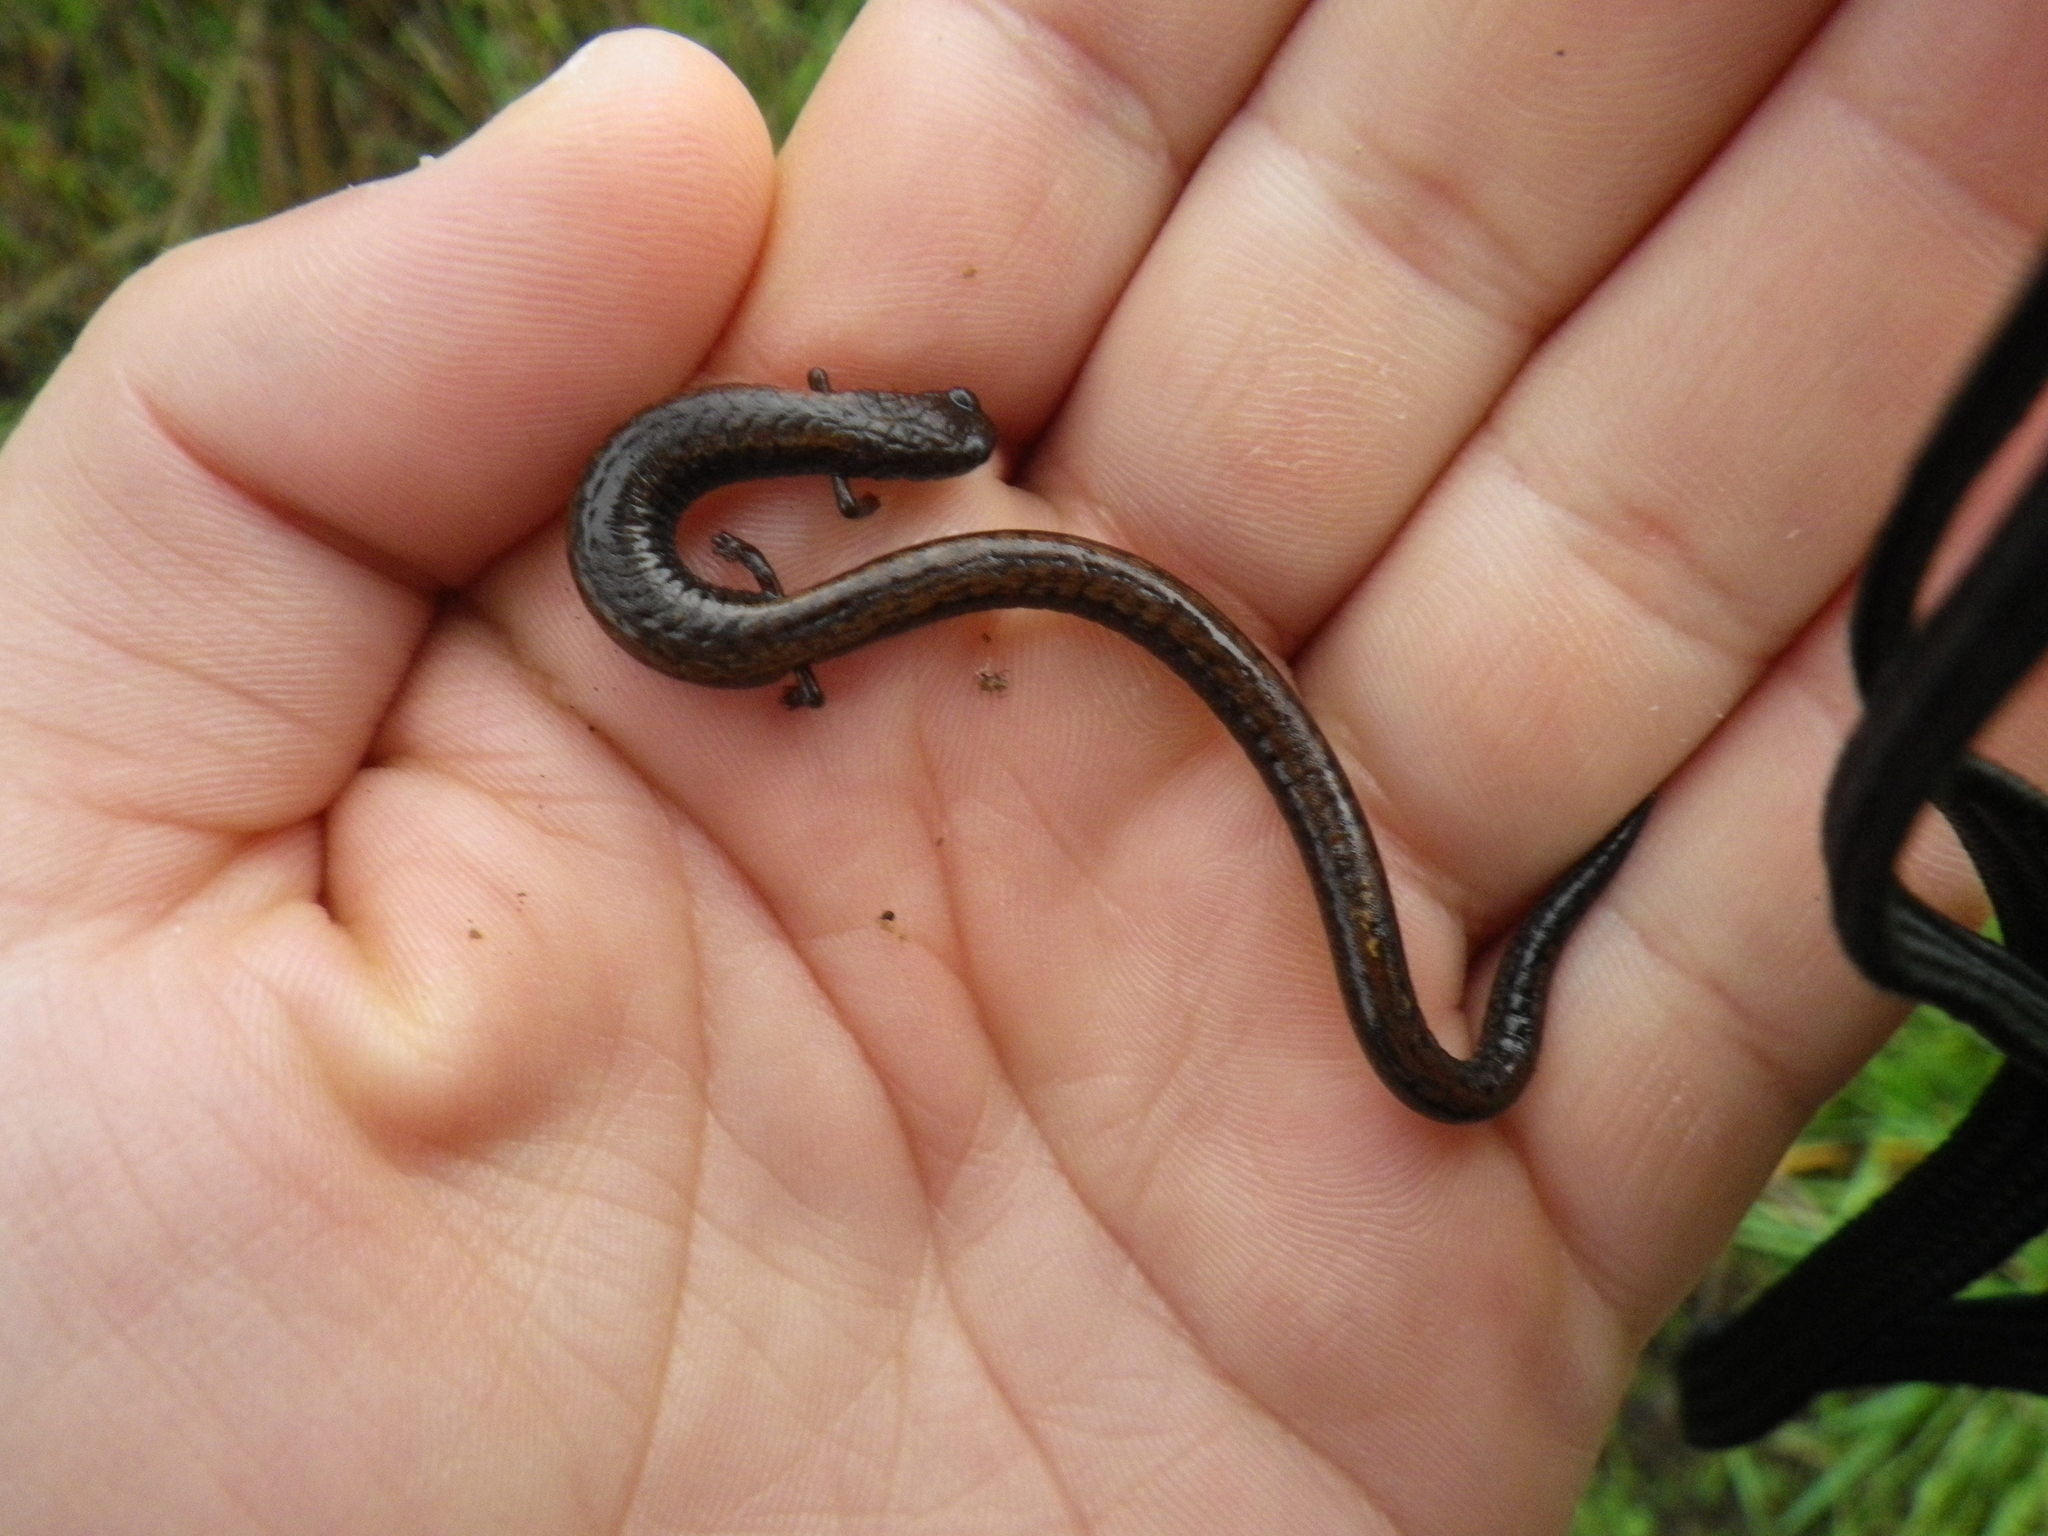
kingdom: Animalia
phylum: Chordata
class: Amphibia
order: Caudata
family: Plethodontidae
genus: Batrachoseps
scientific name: Batrachoseps attenuatus
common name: California slender salamander
